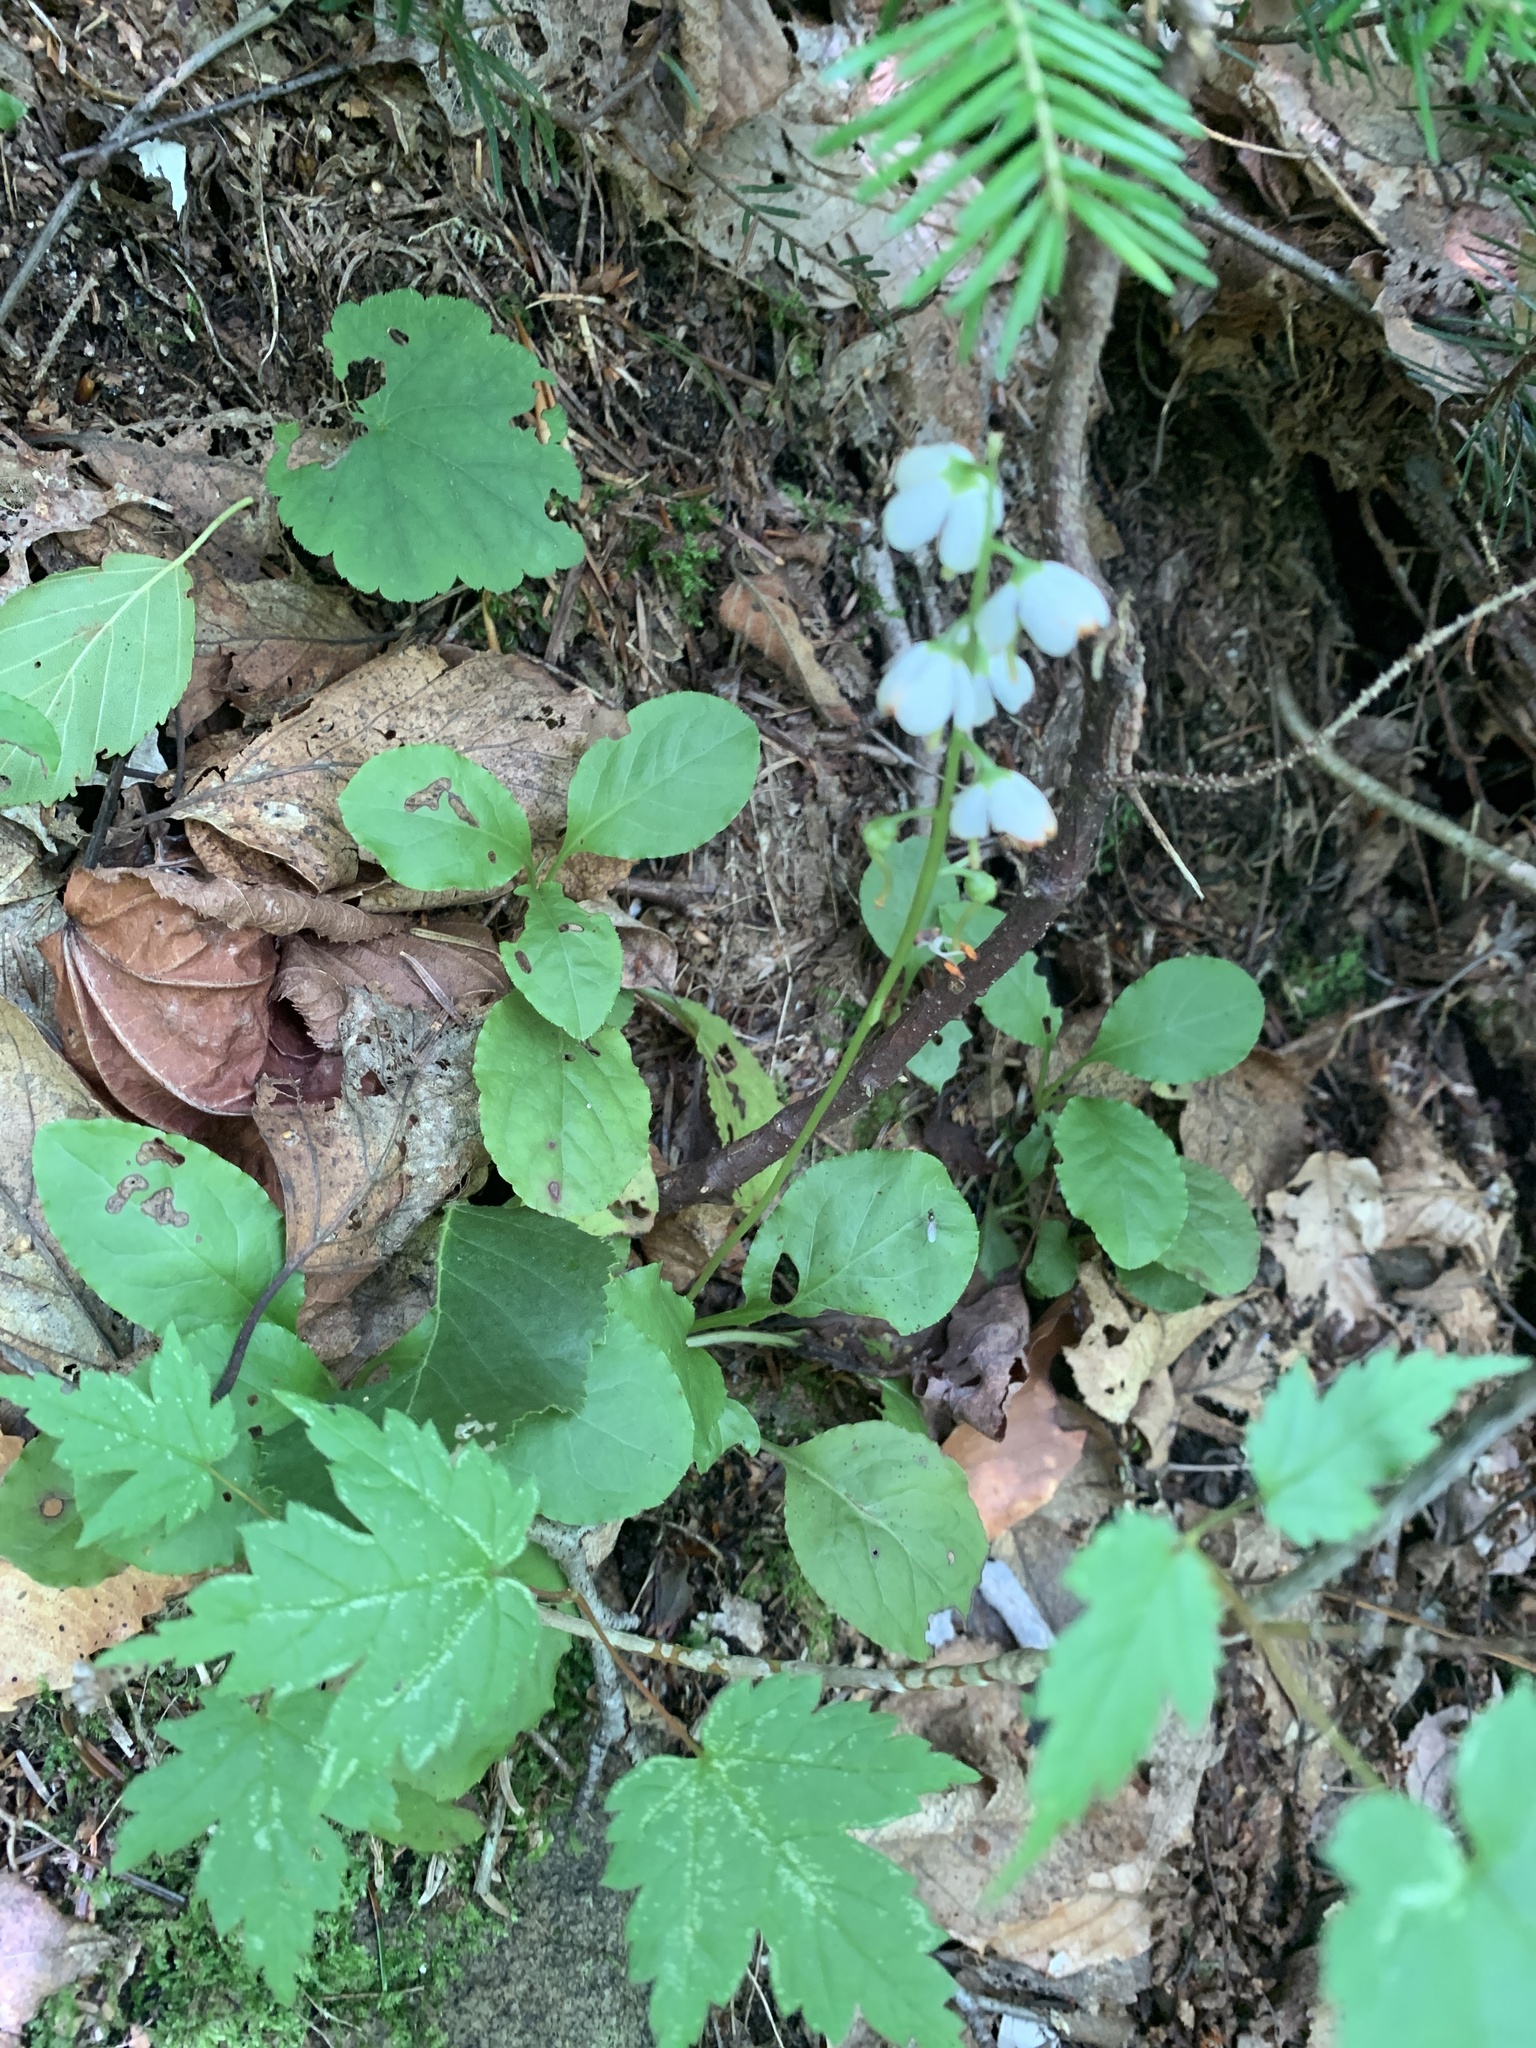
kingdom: Plantae
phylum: Tracheophyta
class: Magnoliopsida
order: Ericales
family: Ericaceae
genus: Pyrola
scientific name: Pyrola elliptica
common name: Shinleaf
